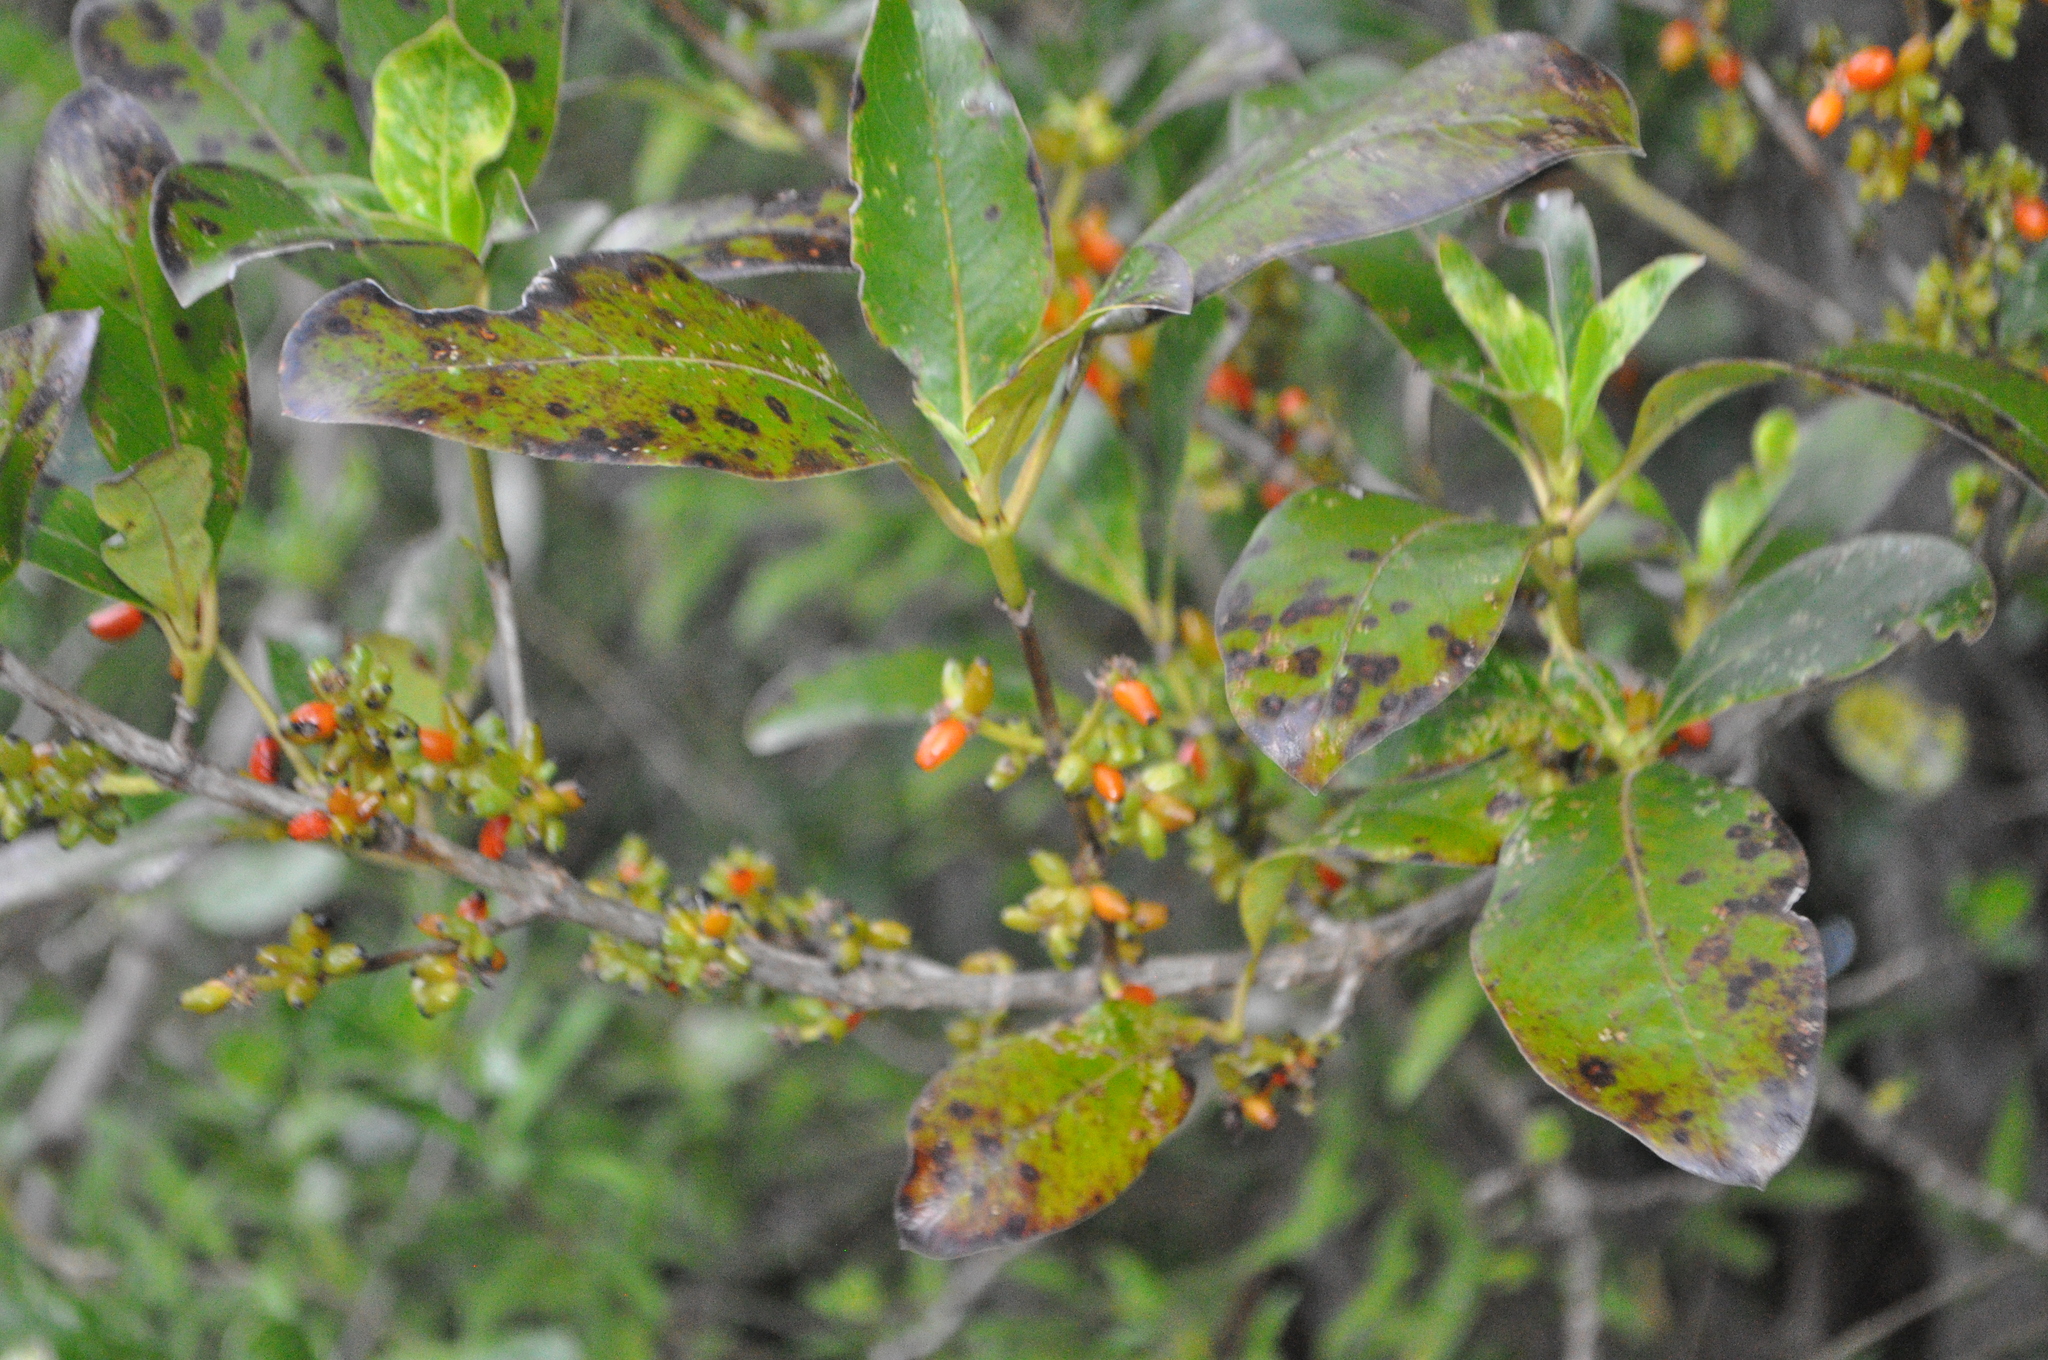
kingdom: Plantae
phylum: Tracheophyta
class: Magnoliopsida
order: Gentianales
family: Rubiaceae
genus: Coprosma
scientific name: Coprosma robusta
